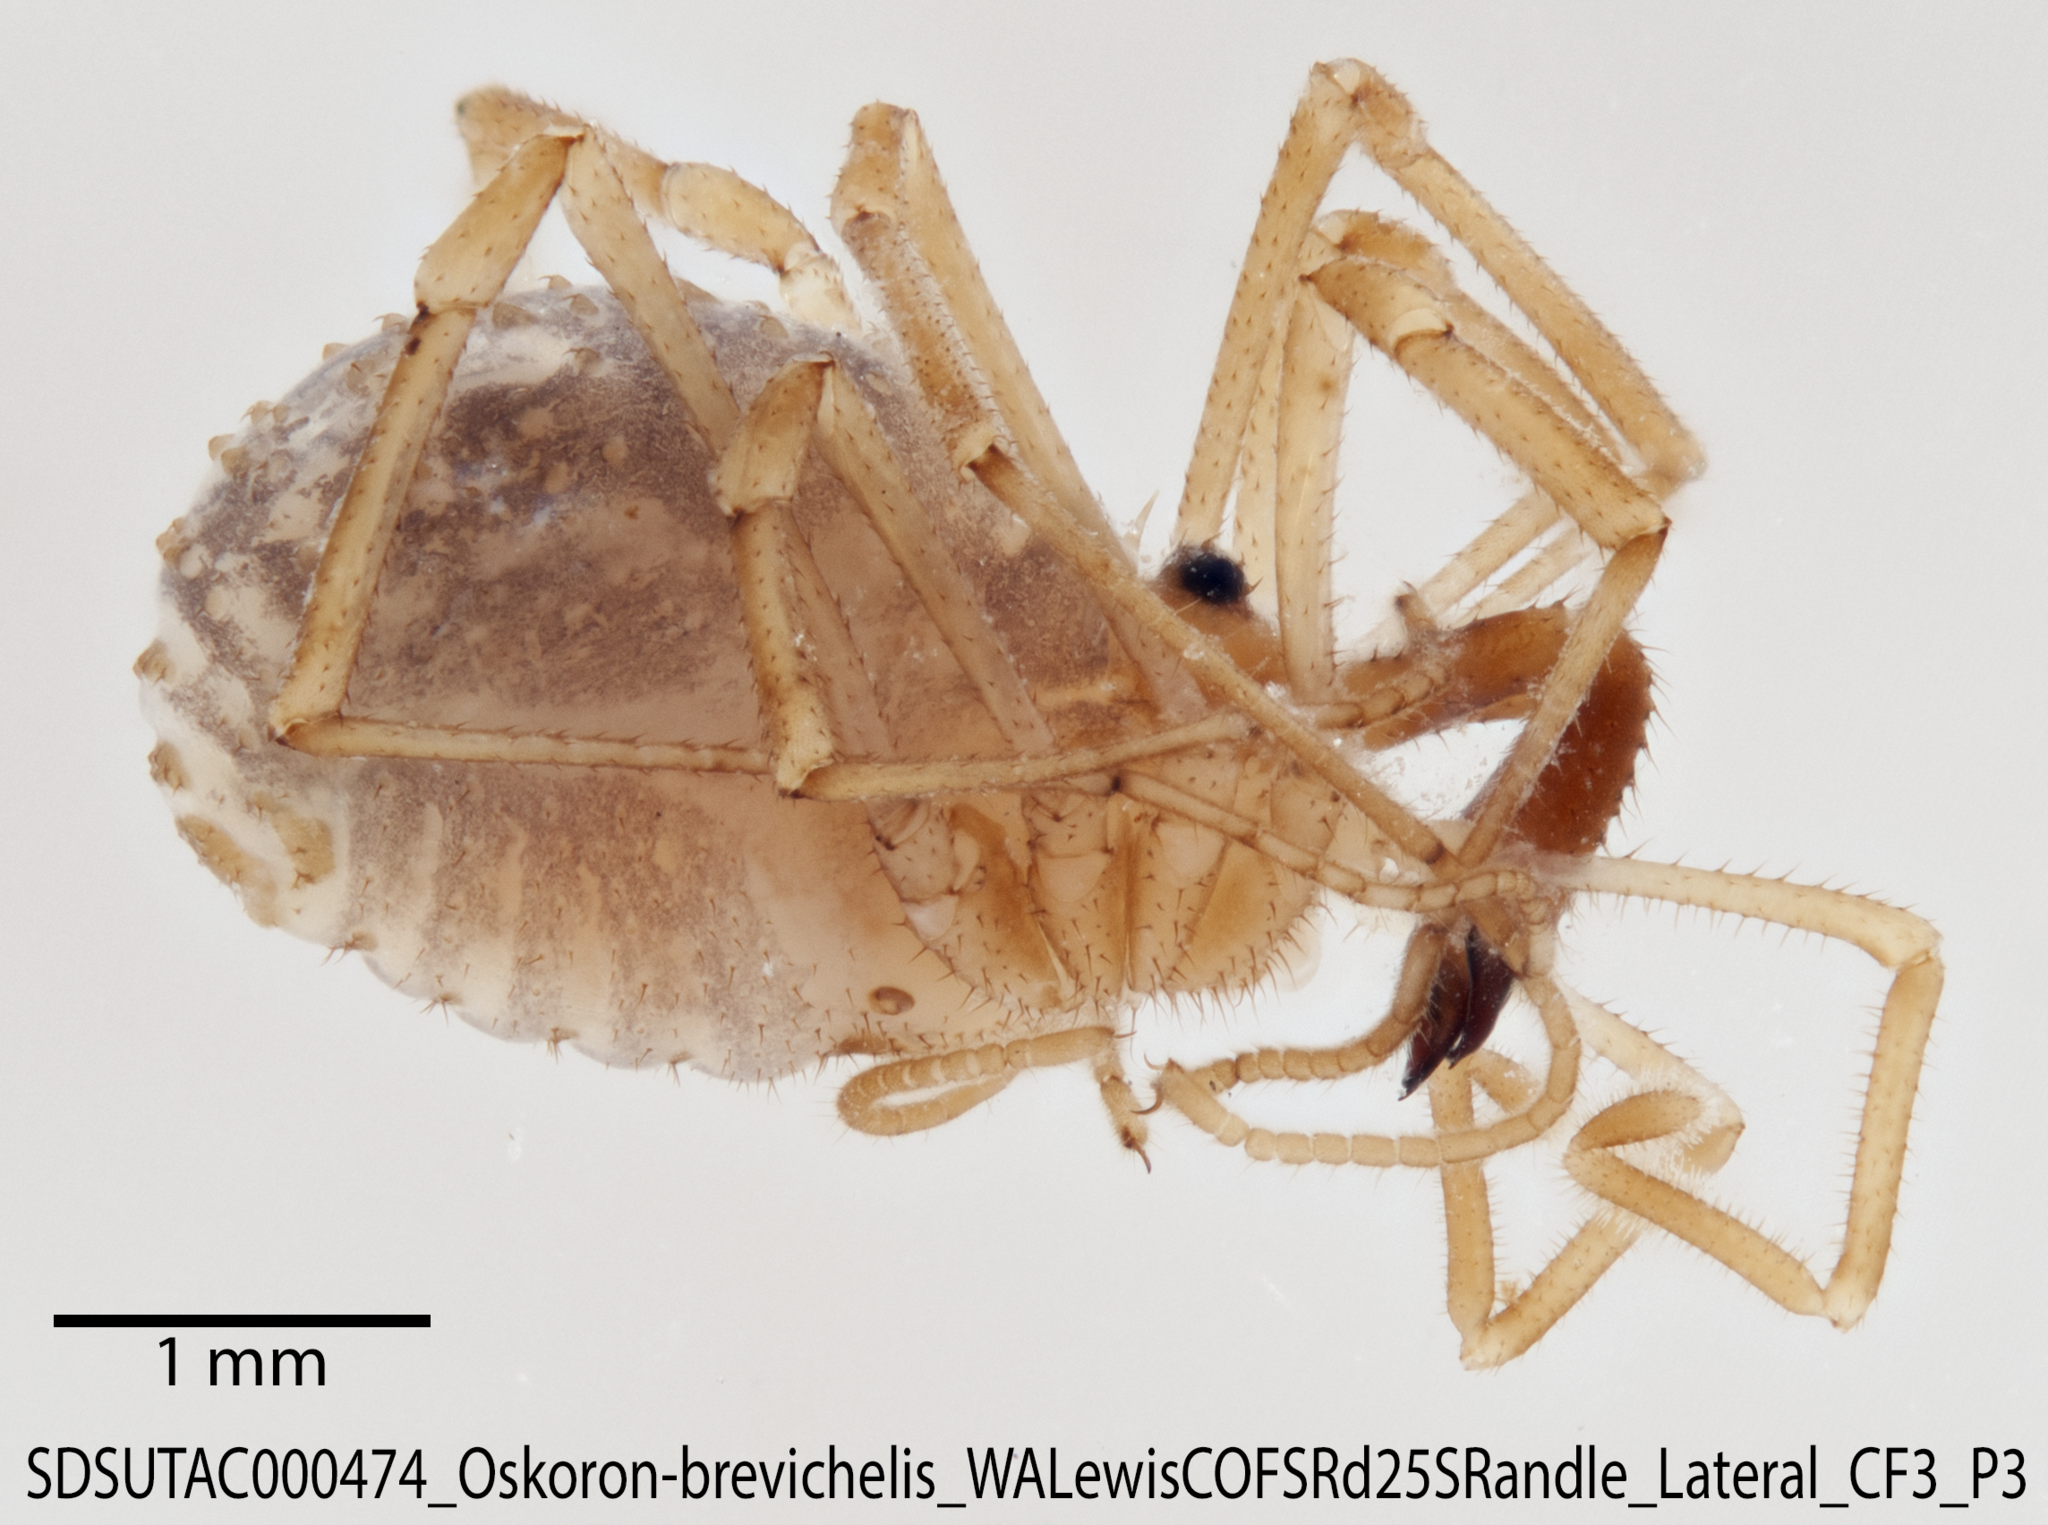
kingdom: Animalia
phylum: Arthropoda
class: Arachnida
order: Opiliones
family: Taracidae
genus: Oskoron
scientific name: Oskoron brevichelis
